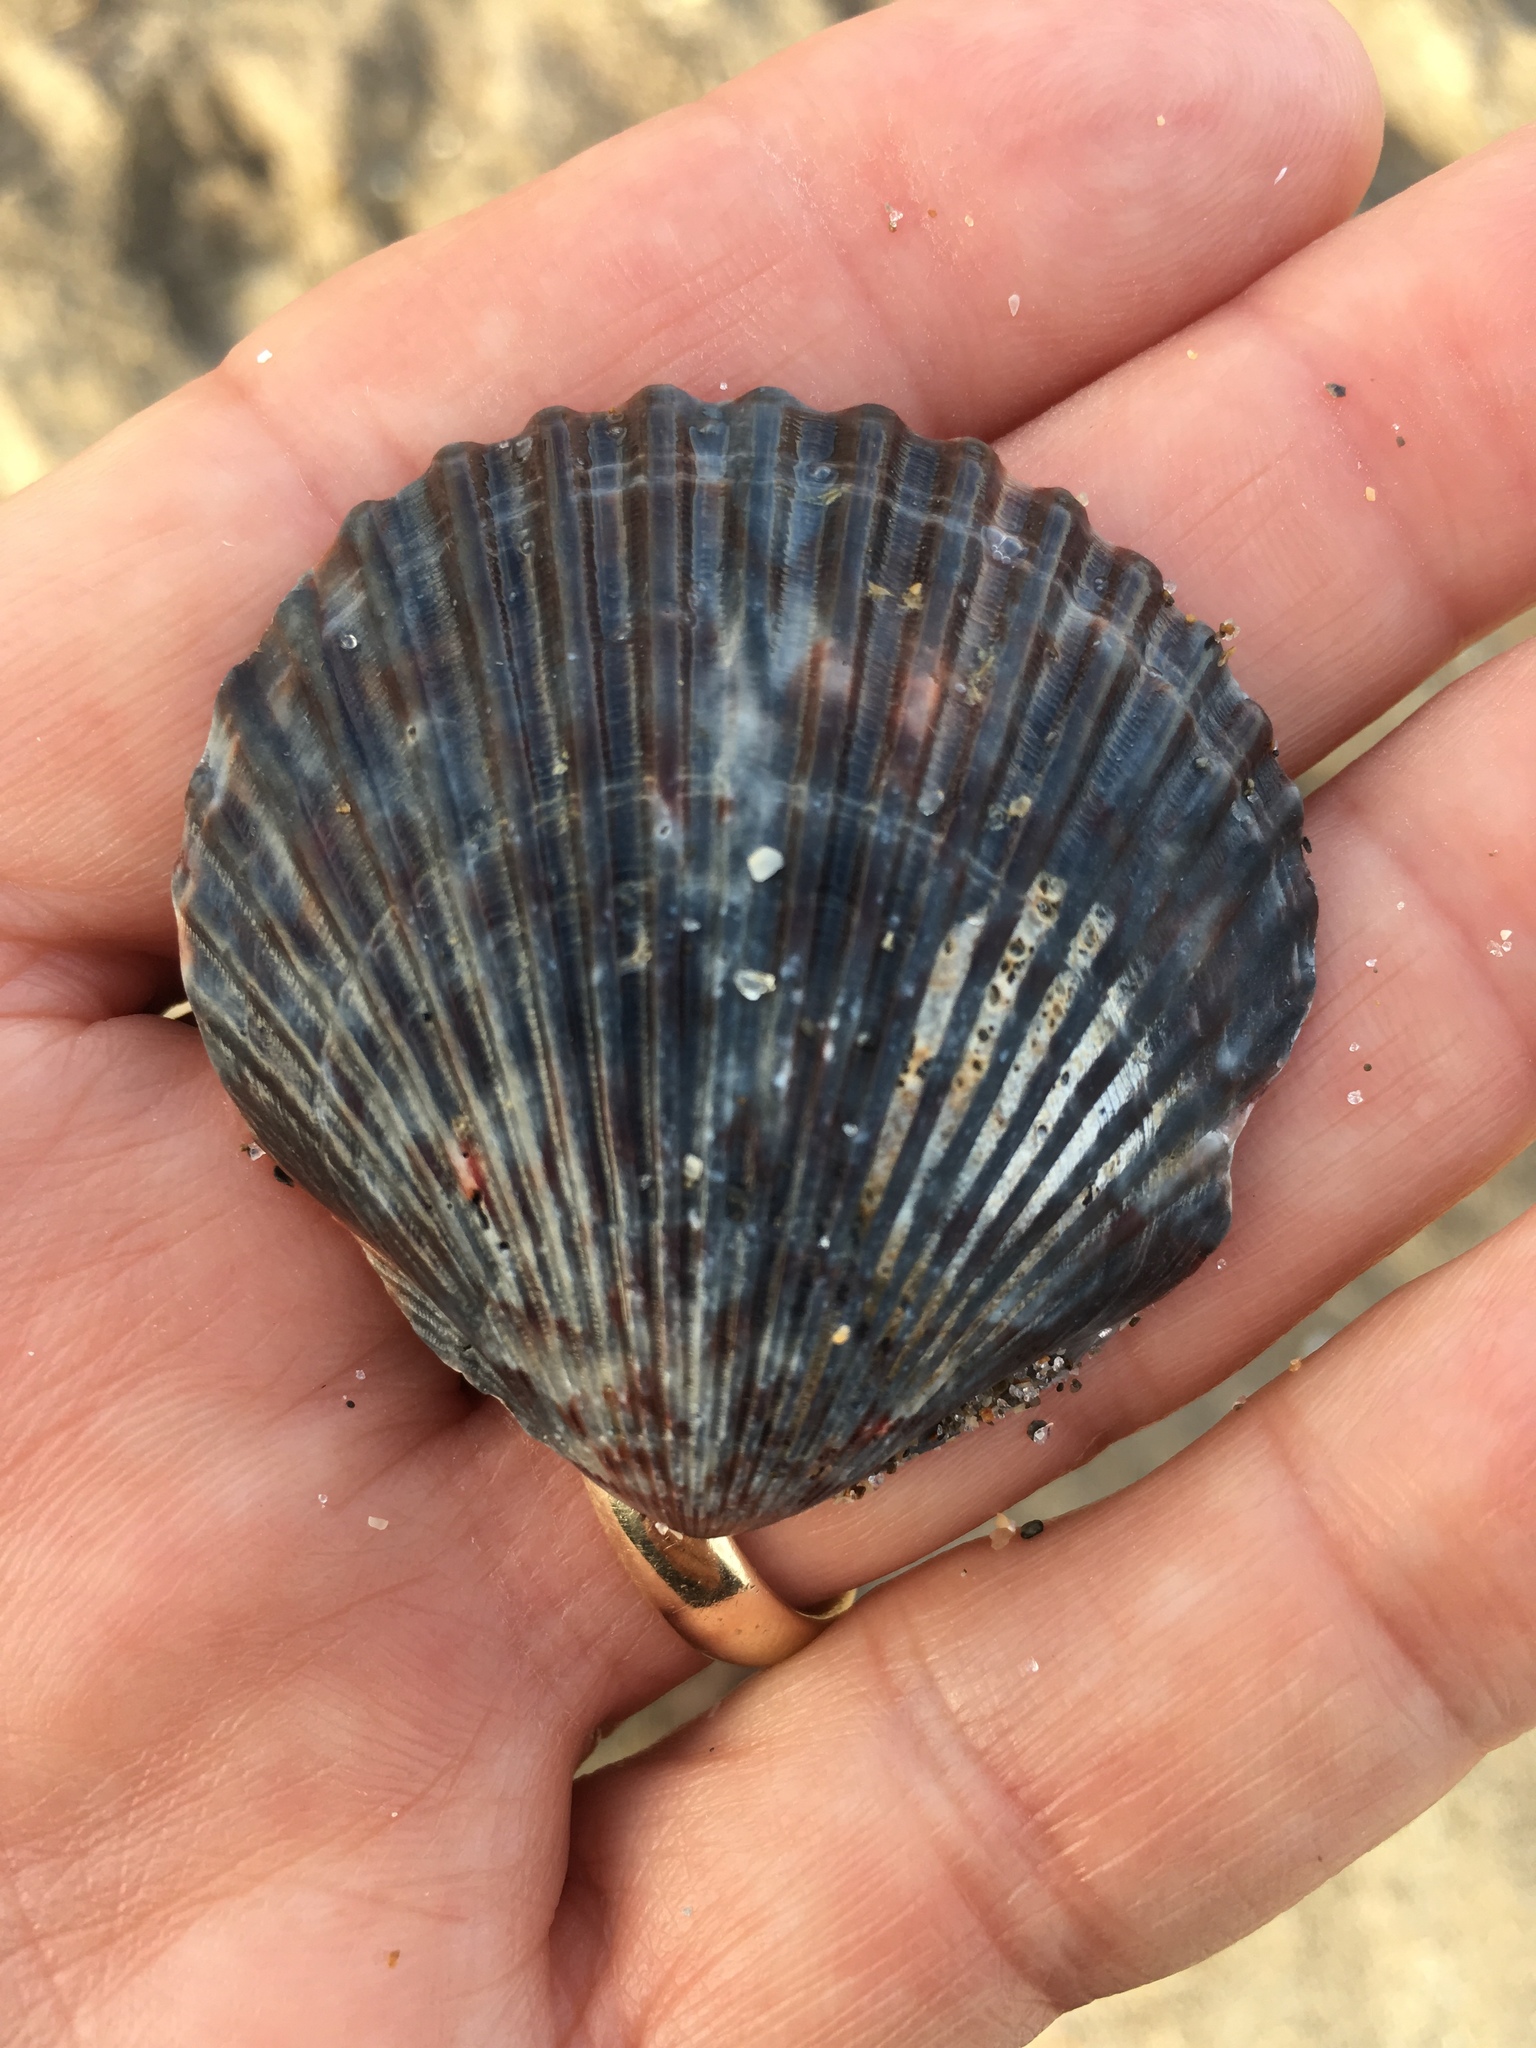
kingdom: Animalia
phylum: Mollusca
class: Bivalvia
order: Pectinida
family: Pectinidae
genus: Argopecten
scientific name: Argopecten gibbus
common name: Atlantic calico scallop
